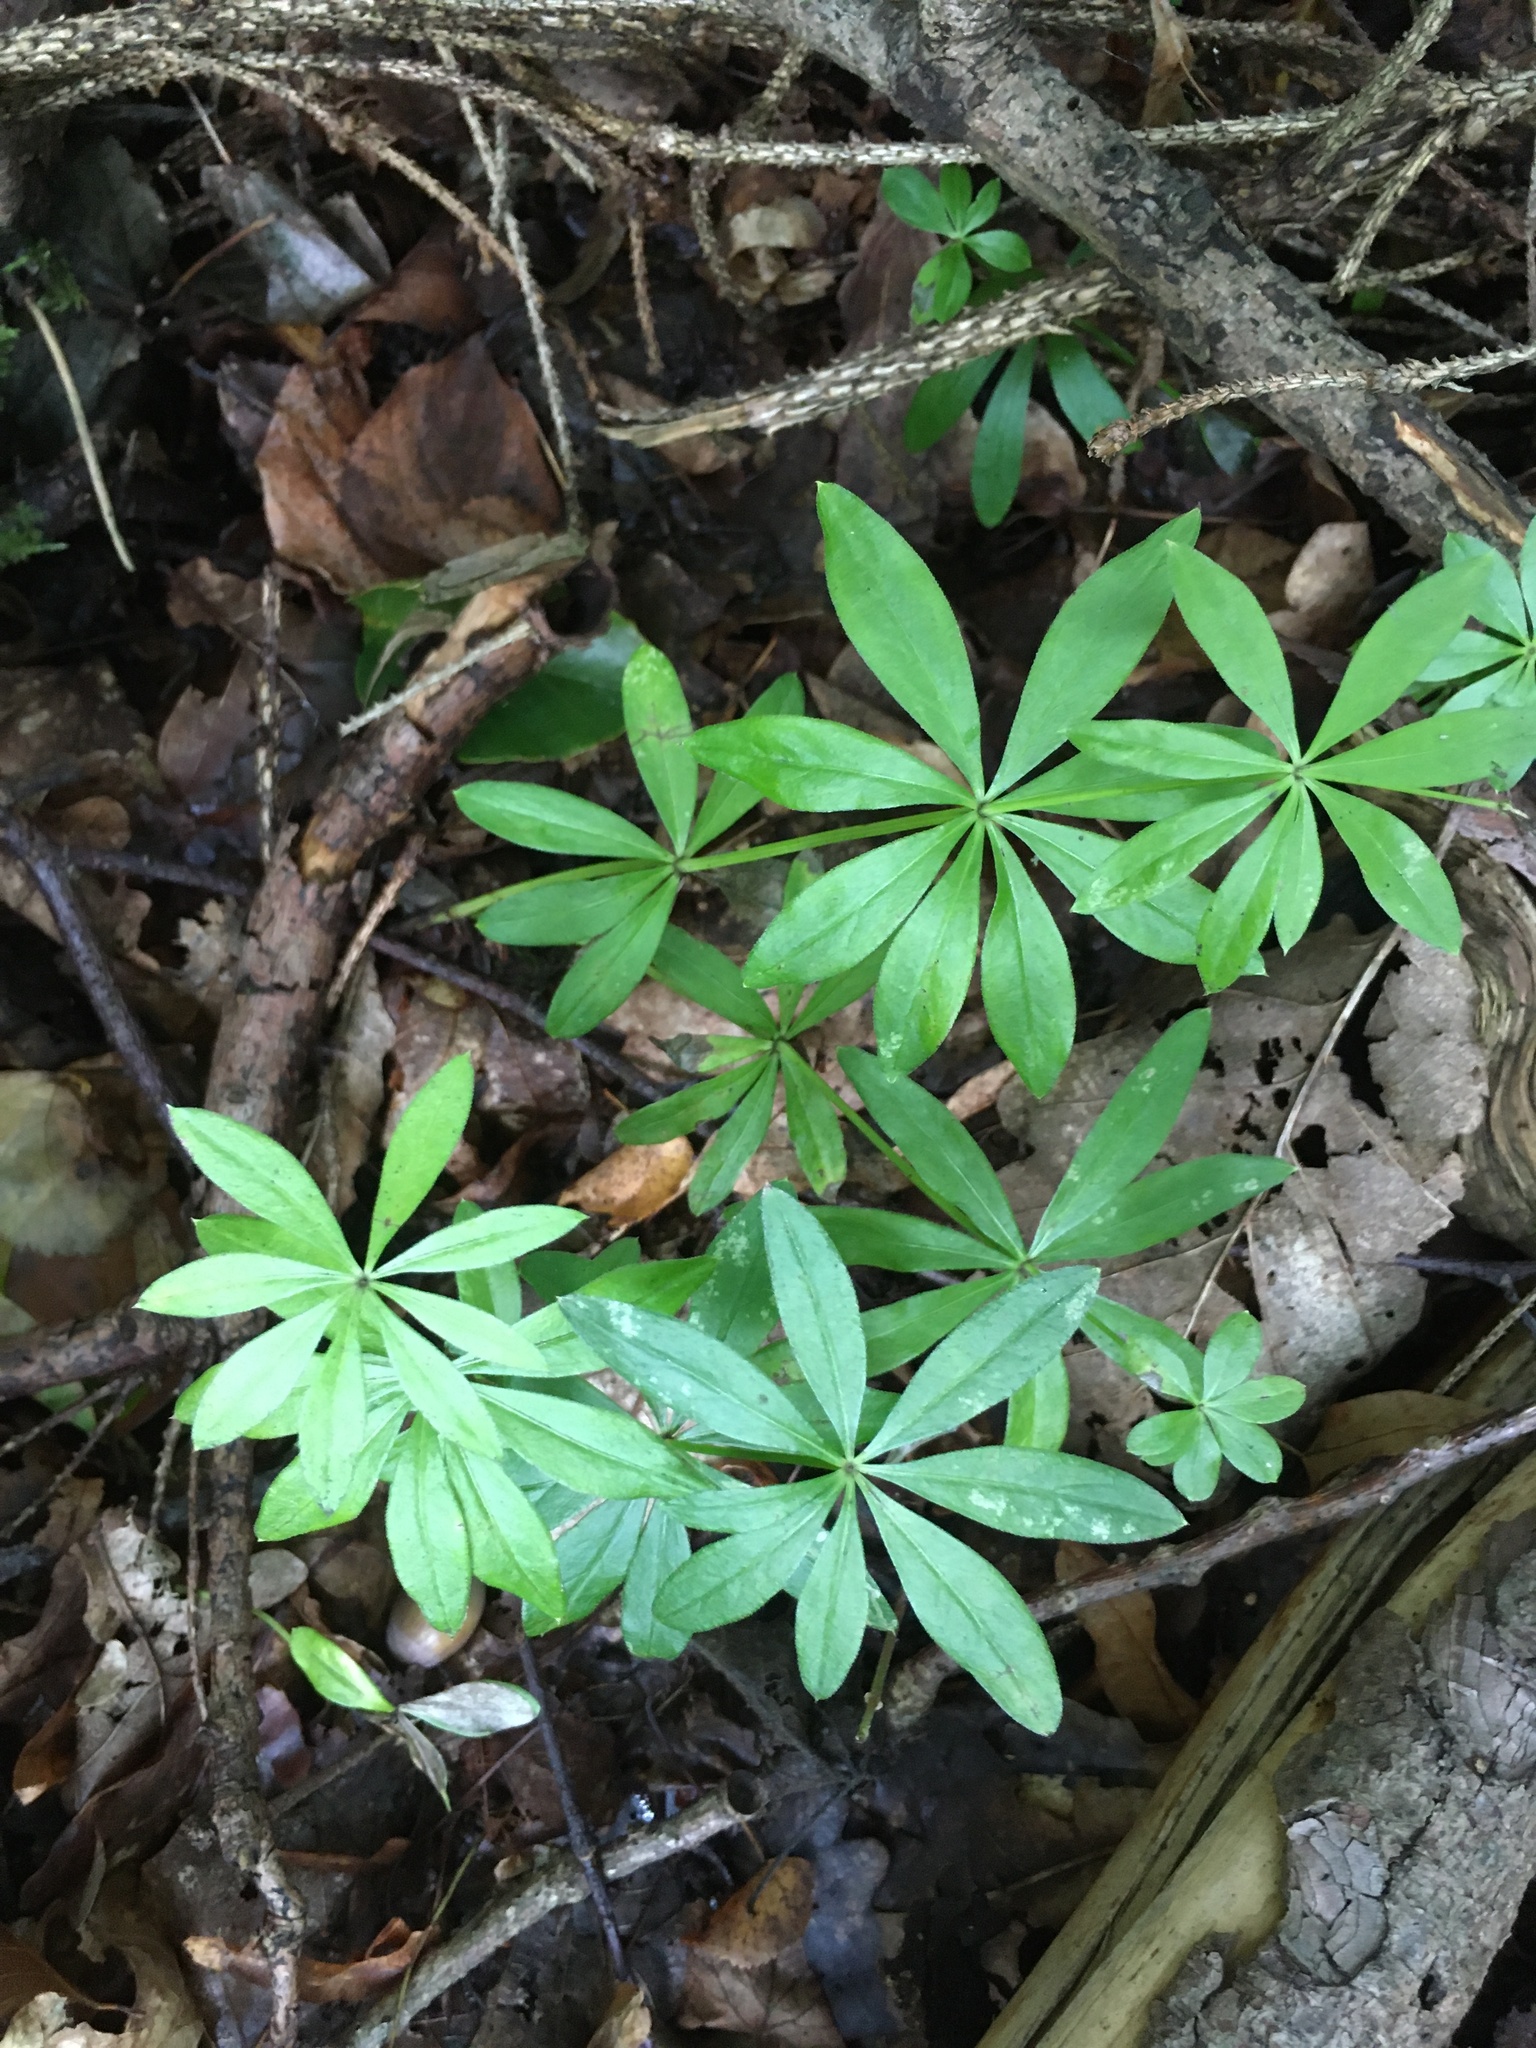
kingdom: Plantae
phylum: Tracheophyta
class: Magnoliopsida
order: Gentianales
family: Rubiaceae
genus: Galium
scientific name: Galium odoratum
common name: Sweet woodruff
